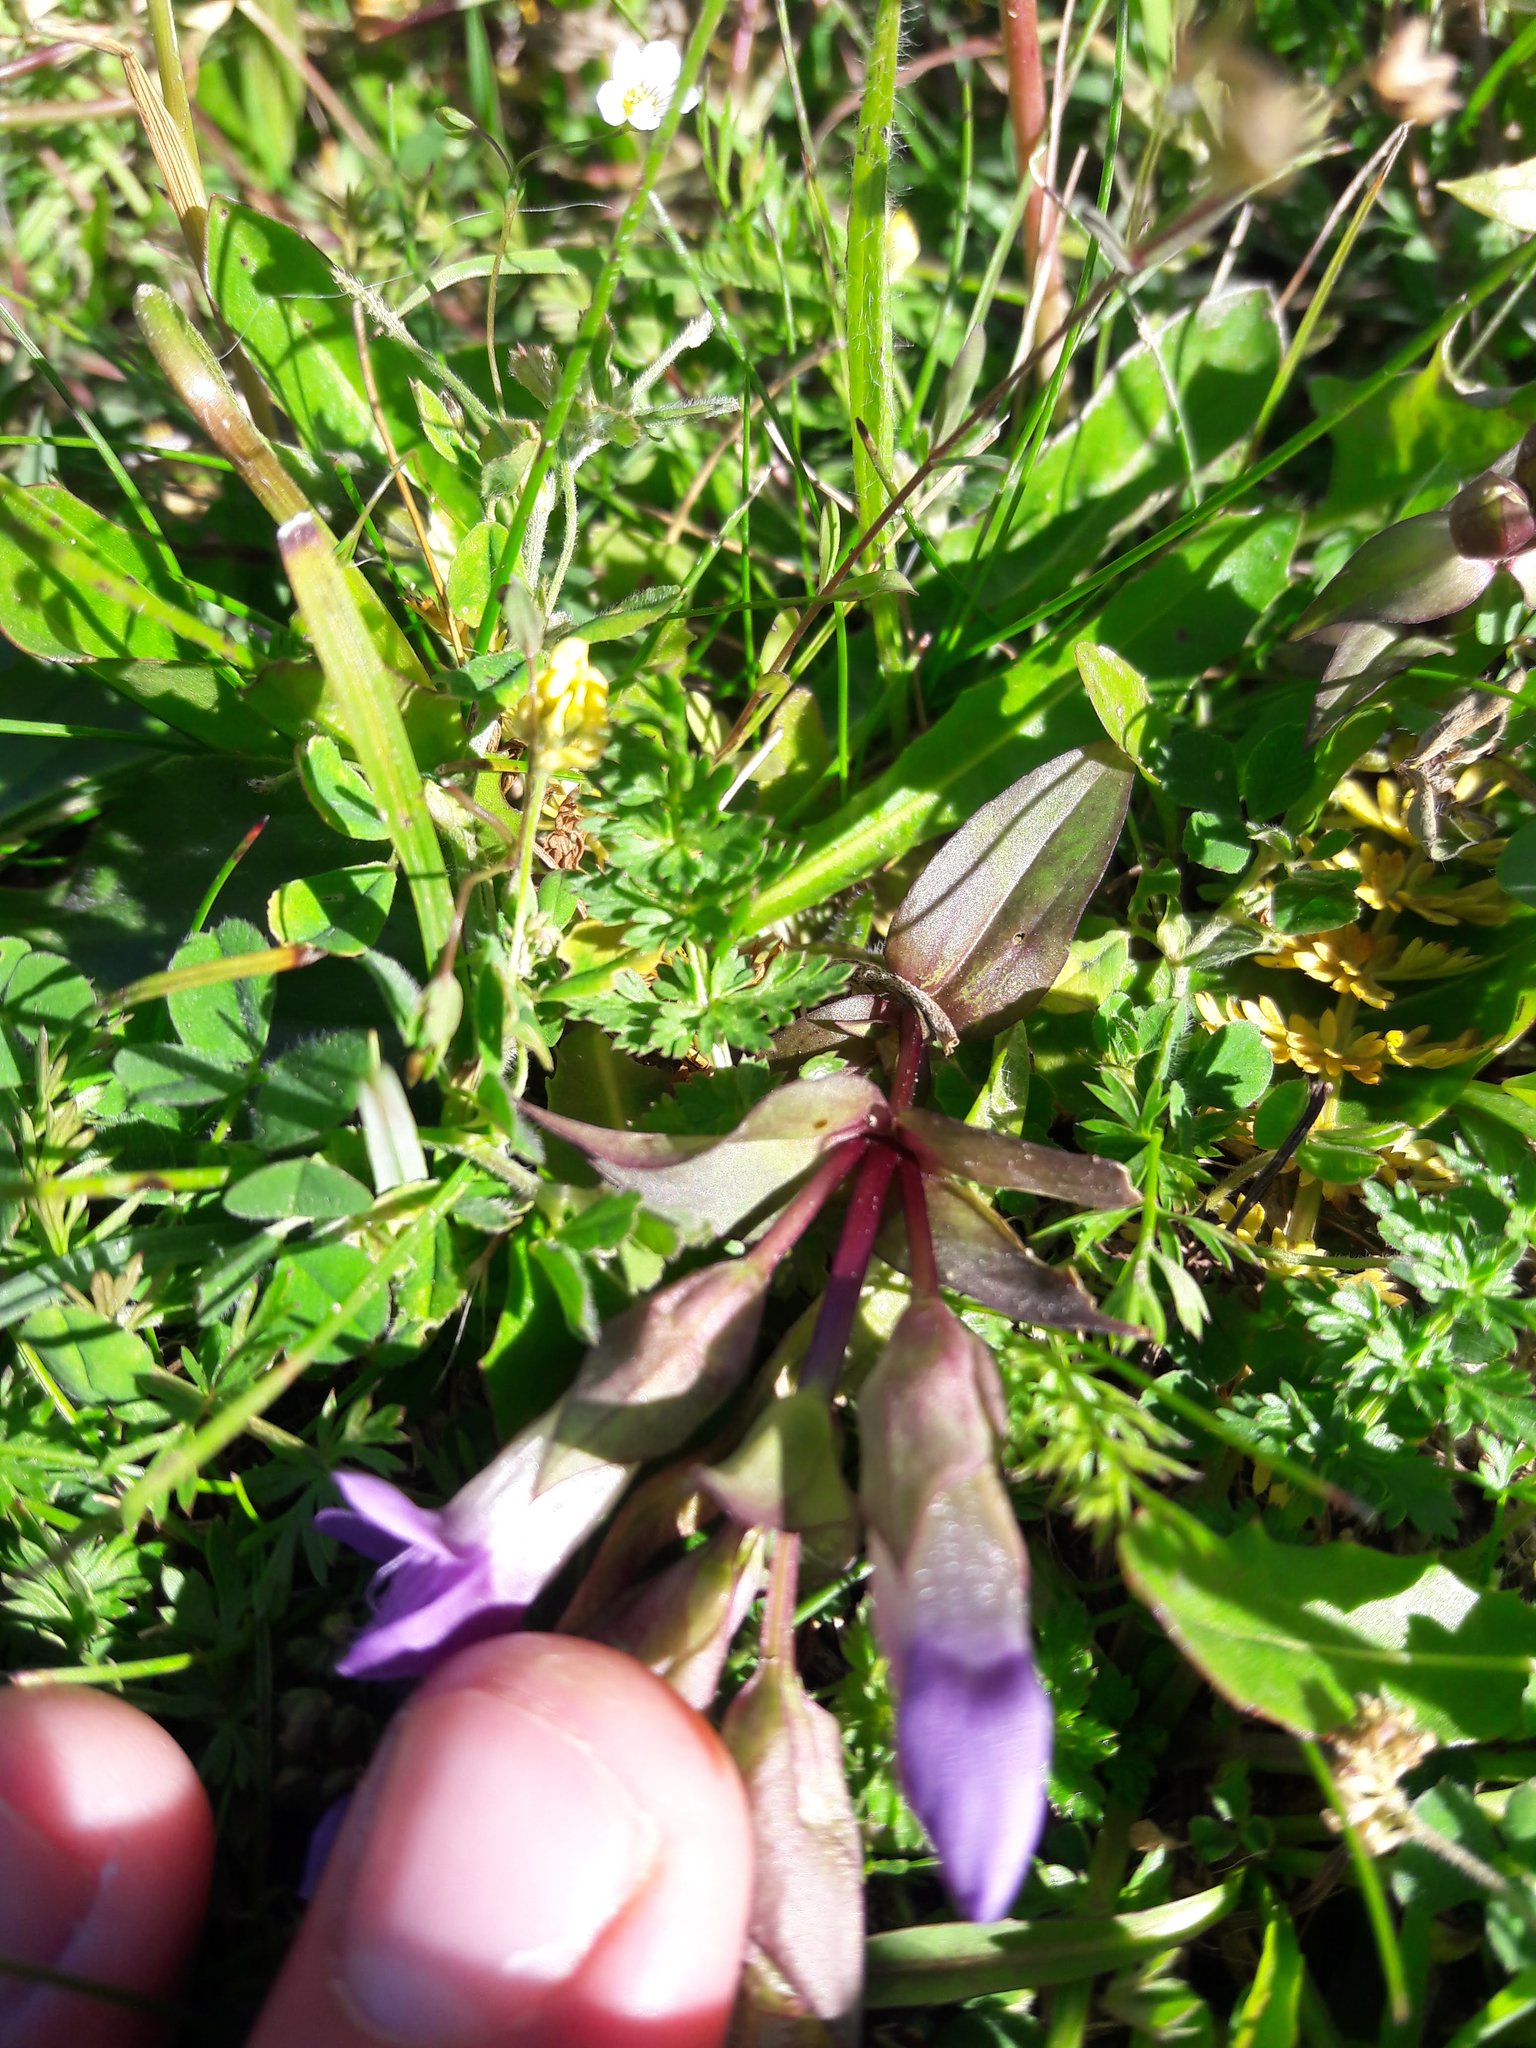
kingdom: Plantae
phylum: Tracheophyta
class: Magnoliopsida
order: Gentianales
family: Gentianaceae
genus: Gentianella
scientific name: Gentianella campestris
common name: Field gentian
